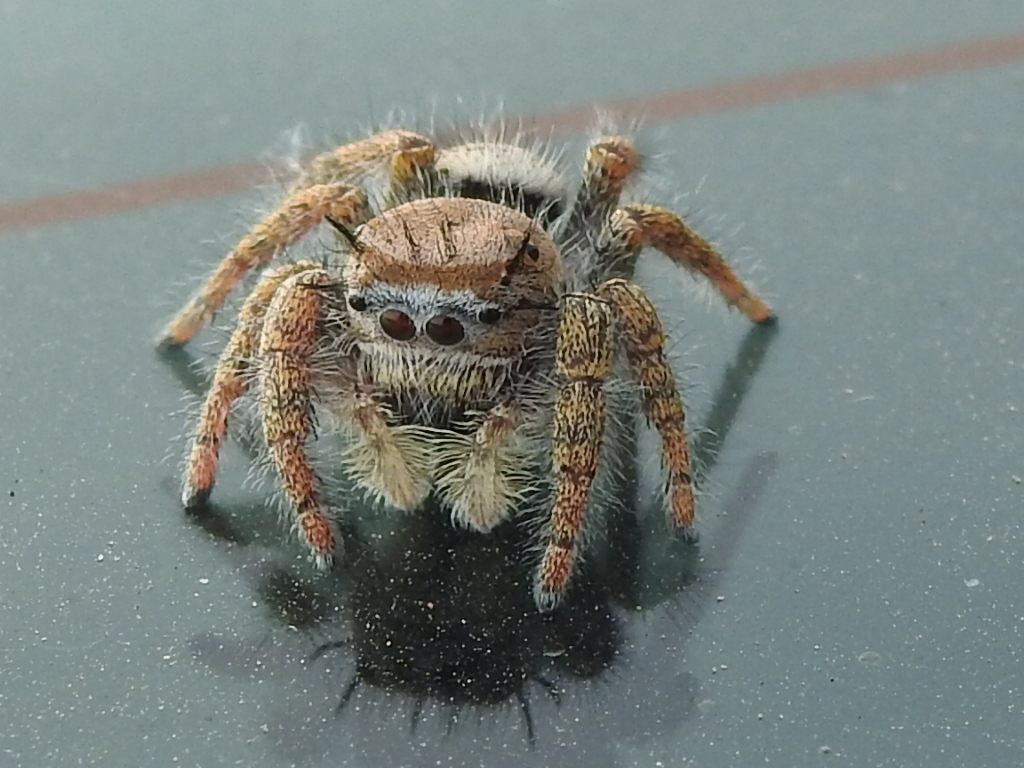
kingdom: Animalia
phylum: Arthropoda
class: Arachnida
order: Araneae
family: Salticidae
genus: Phidippus
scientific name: Phidippus carolinensis
